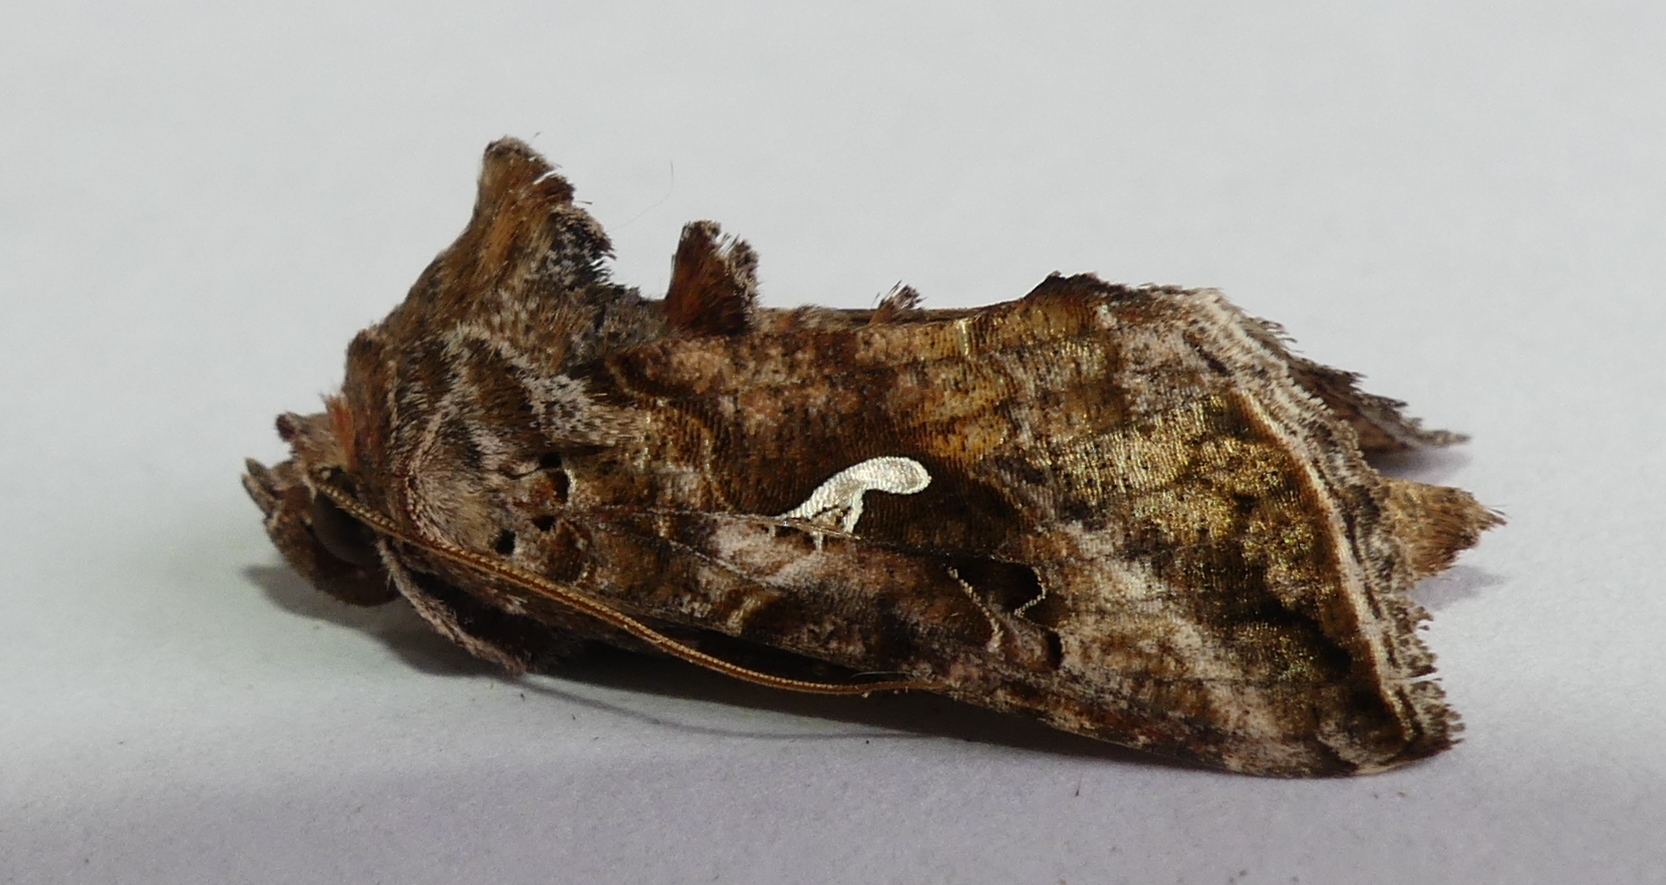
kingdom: Animalia
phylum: Arthropoda
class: Insecta
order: Lepidoptera
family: Noctuidae
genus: Autographa
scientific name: Autographa precationis
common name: Common looper moth
